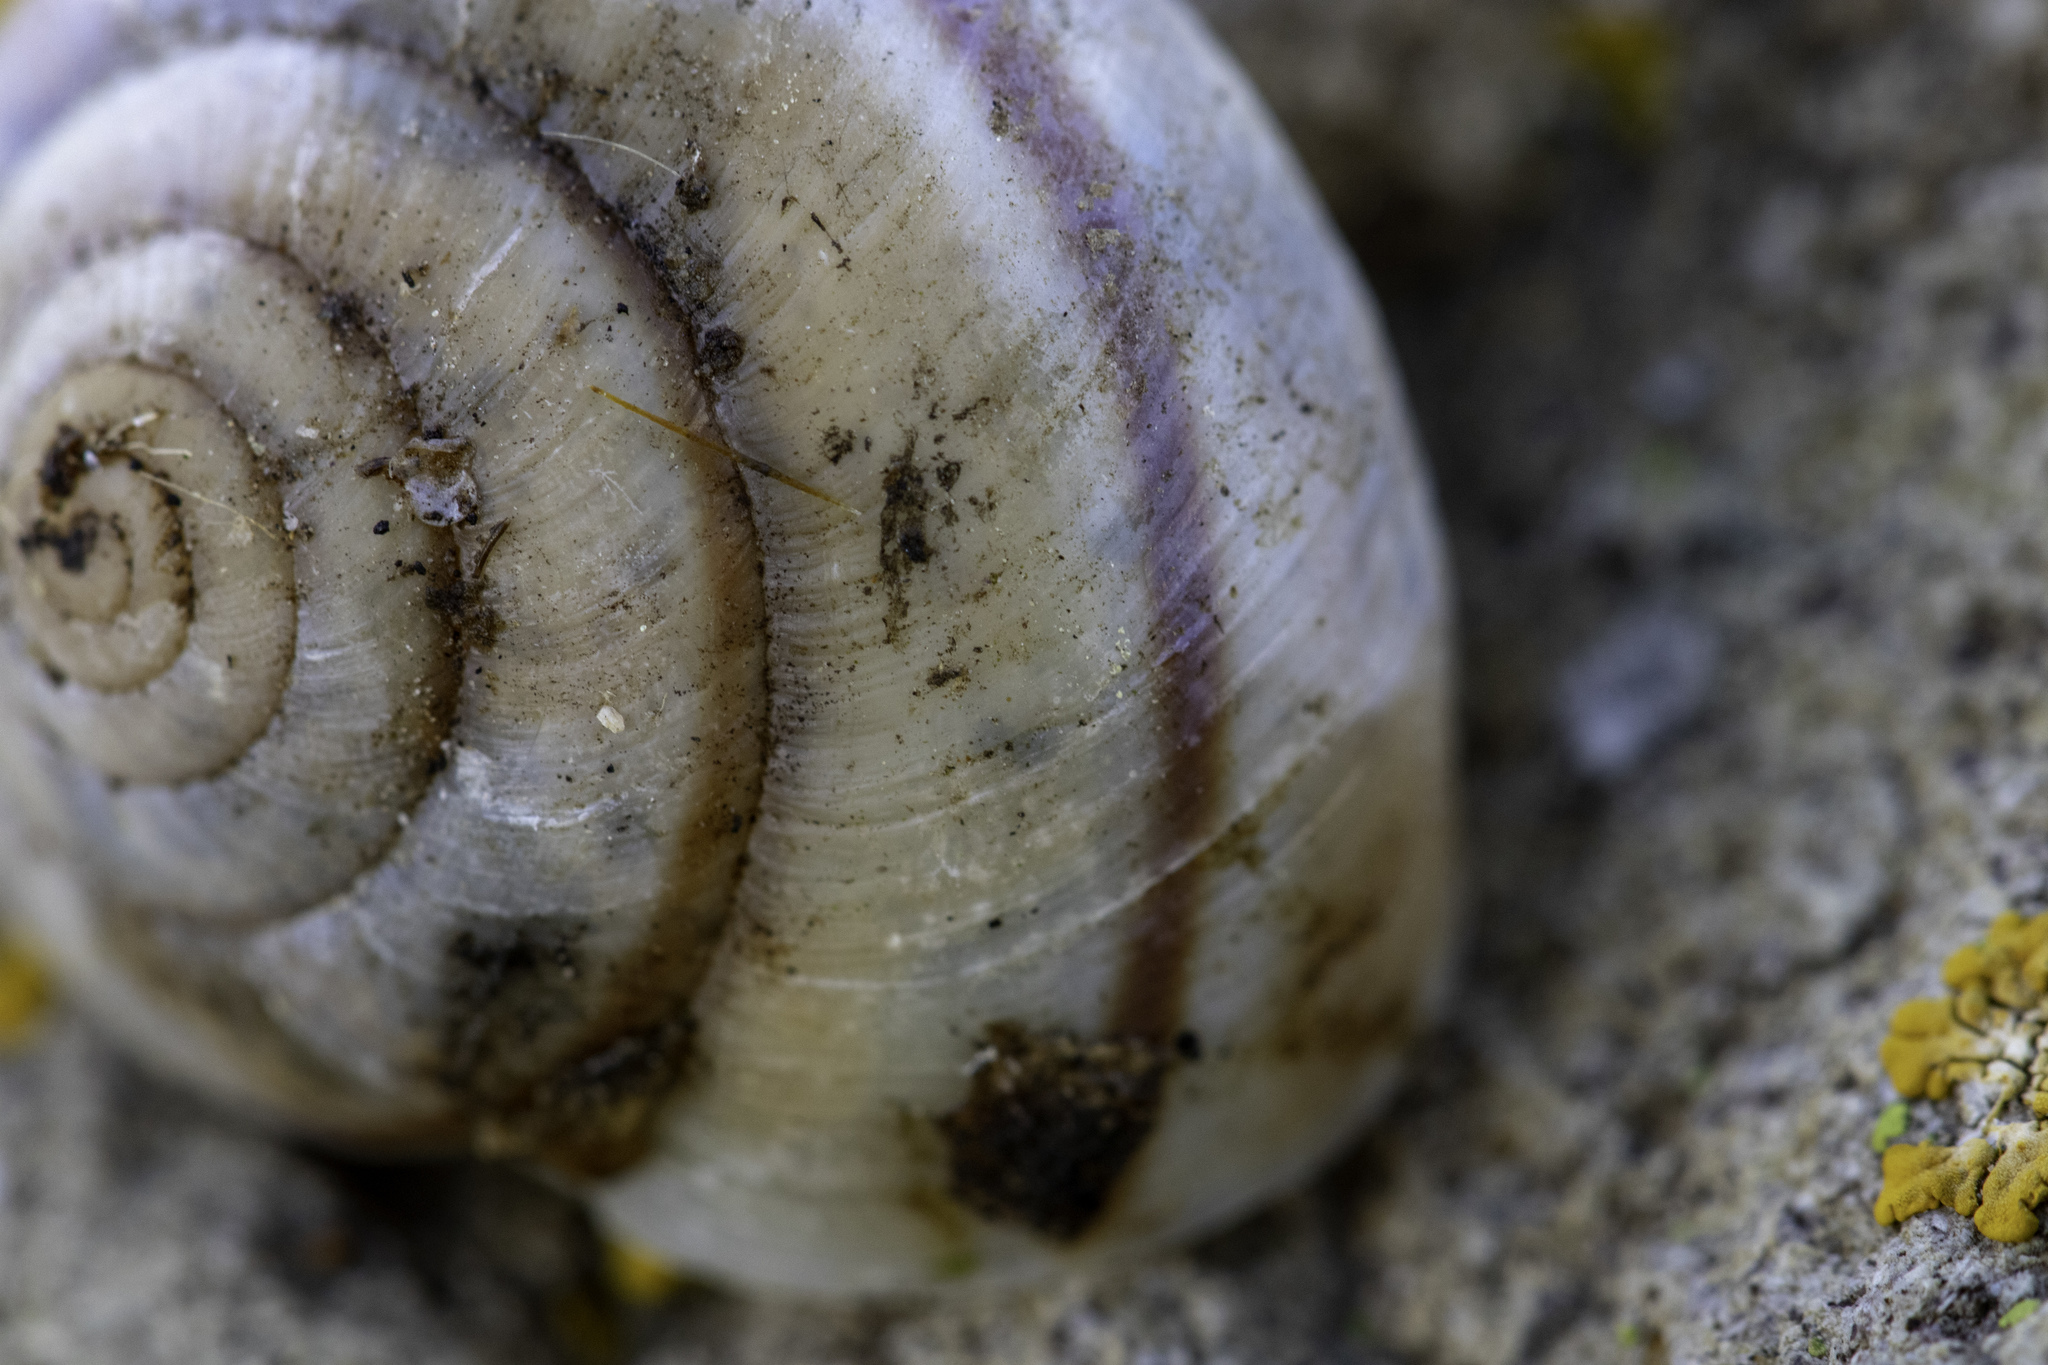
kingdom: Animalia
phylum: Mollusca
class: Gastropoda
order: Stylommatophora
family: Xanthonychidae
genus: Helminthoglypta
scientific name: Helminthoglypta traskii
